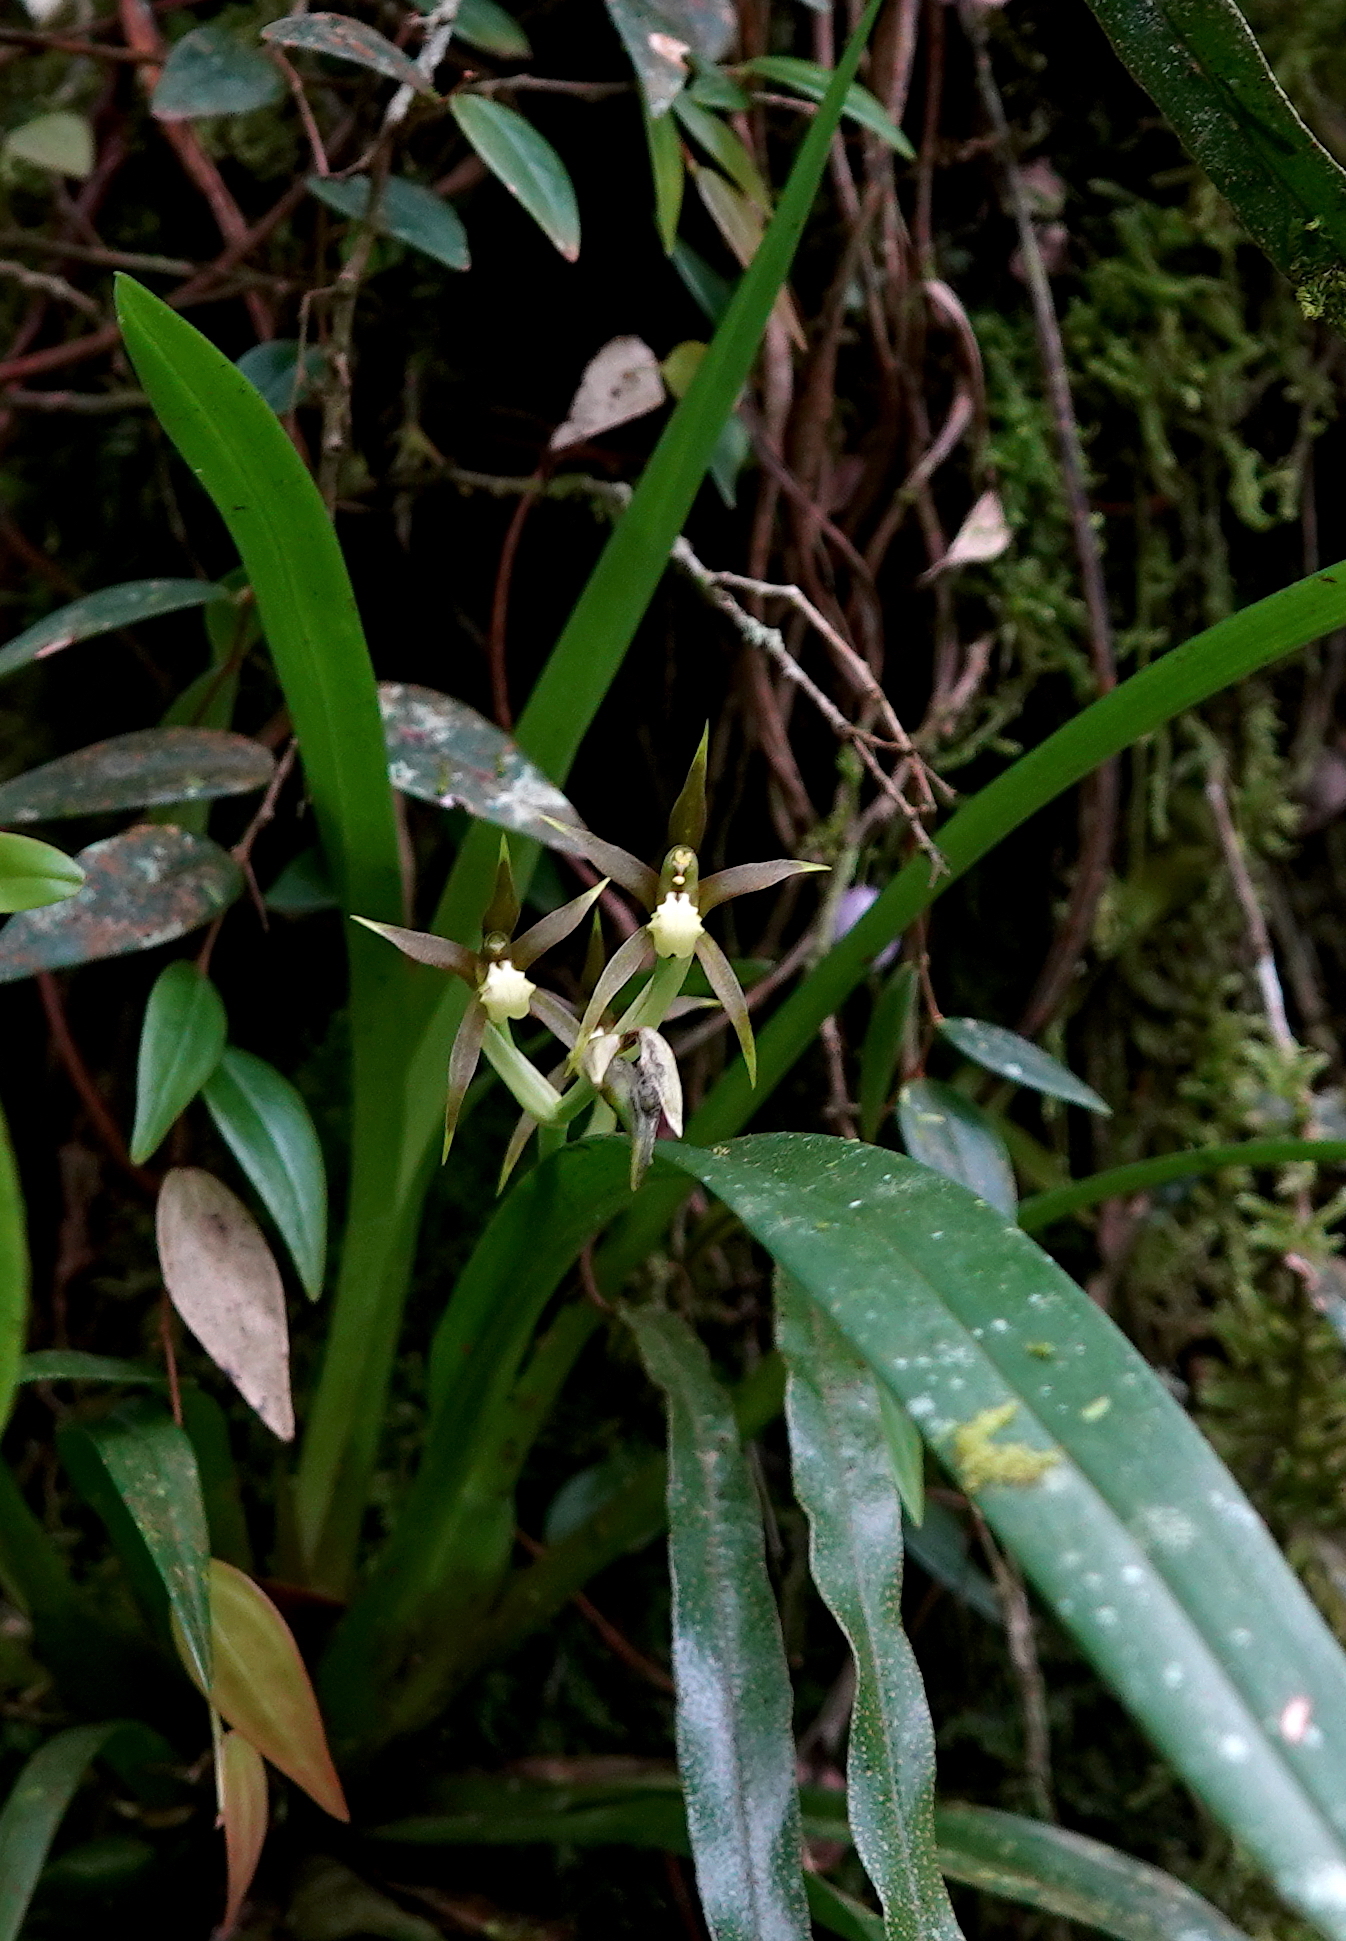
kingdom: Plantae
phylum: Tracheophyta
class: Liliopsida
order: Asparagales
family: Orchidaceae
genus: Brassia
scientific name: Brassia euodes
